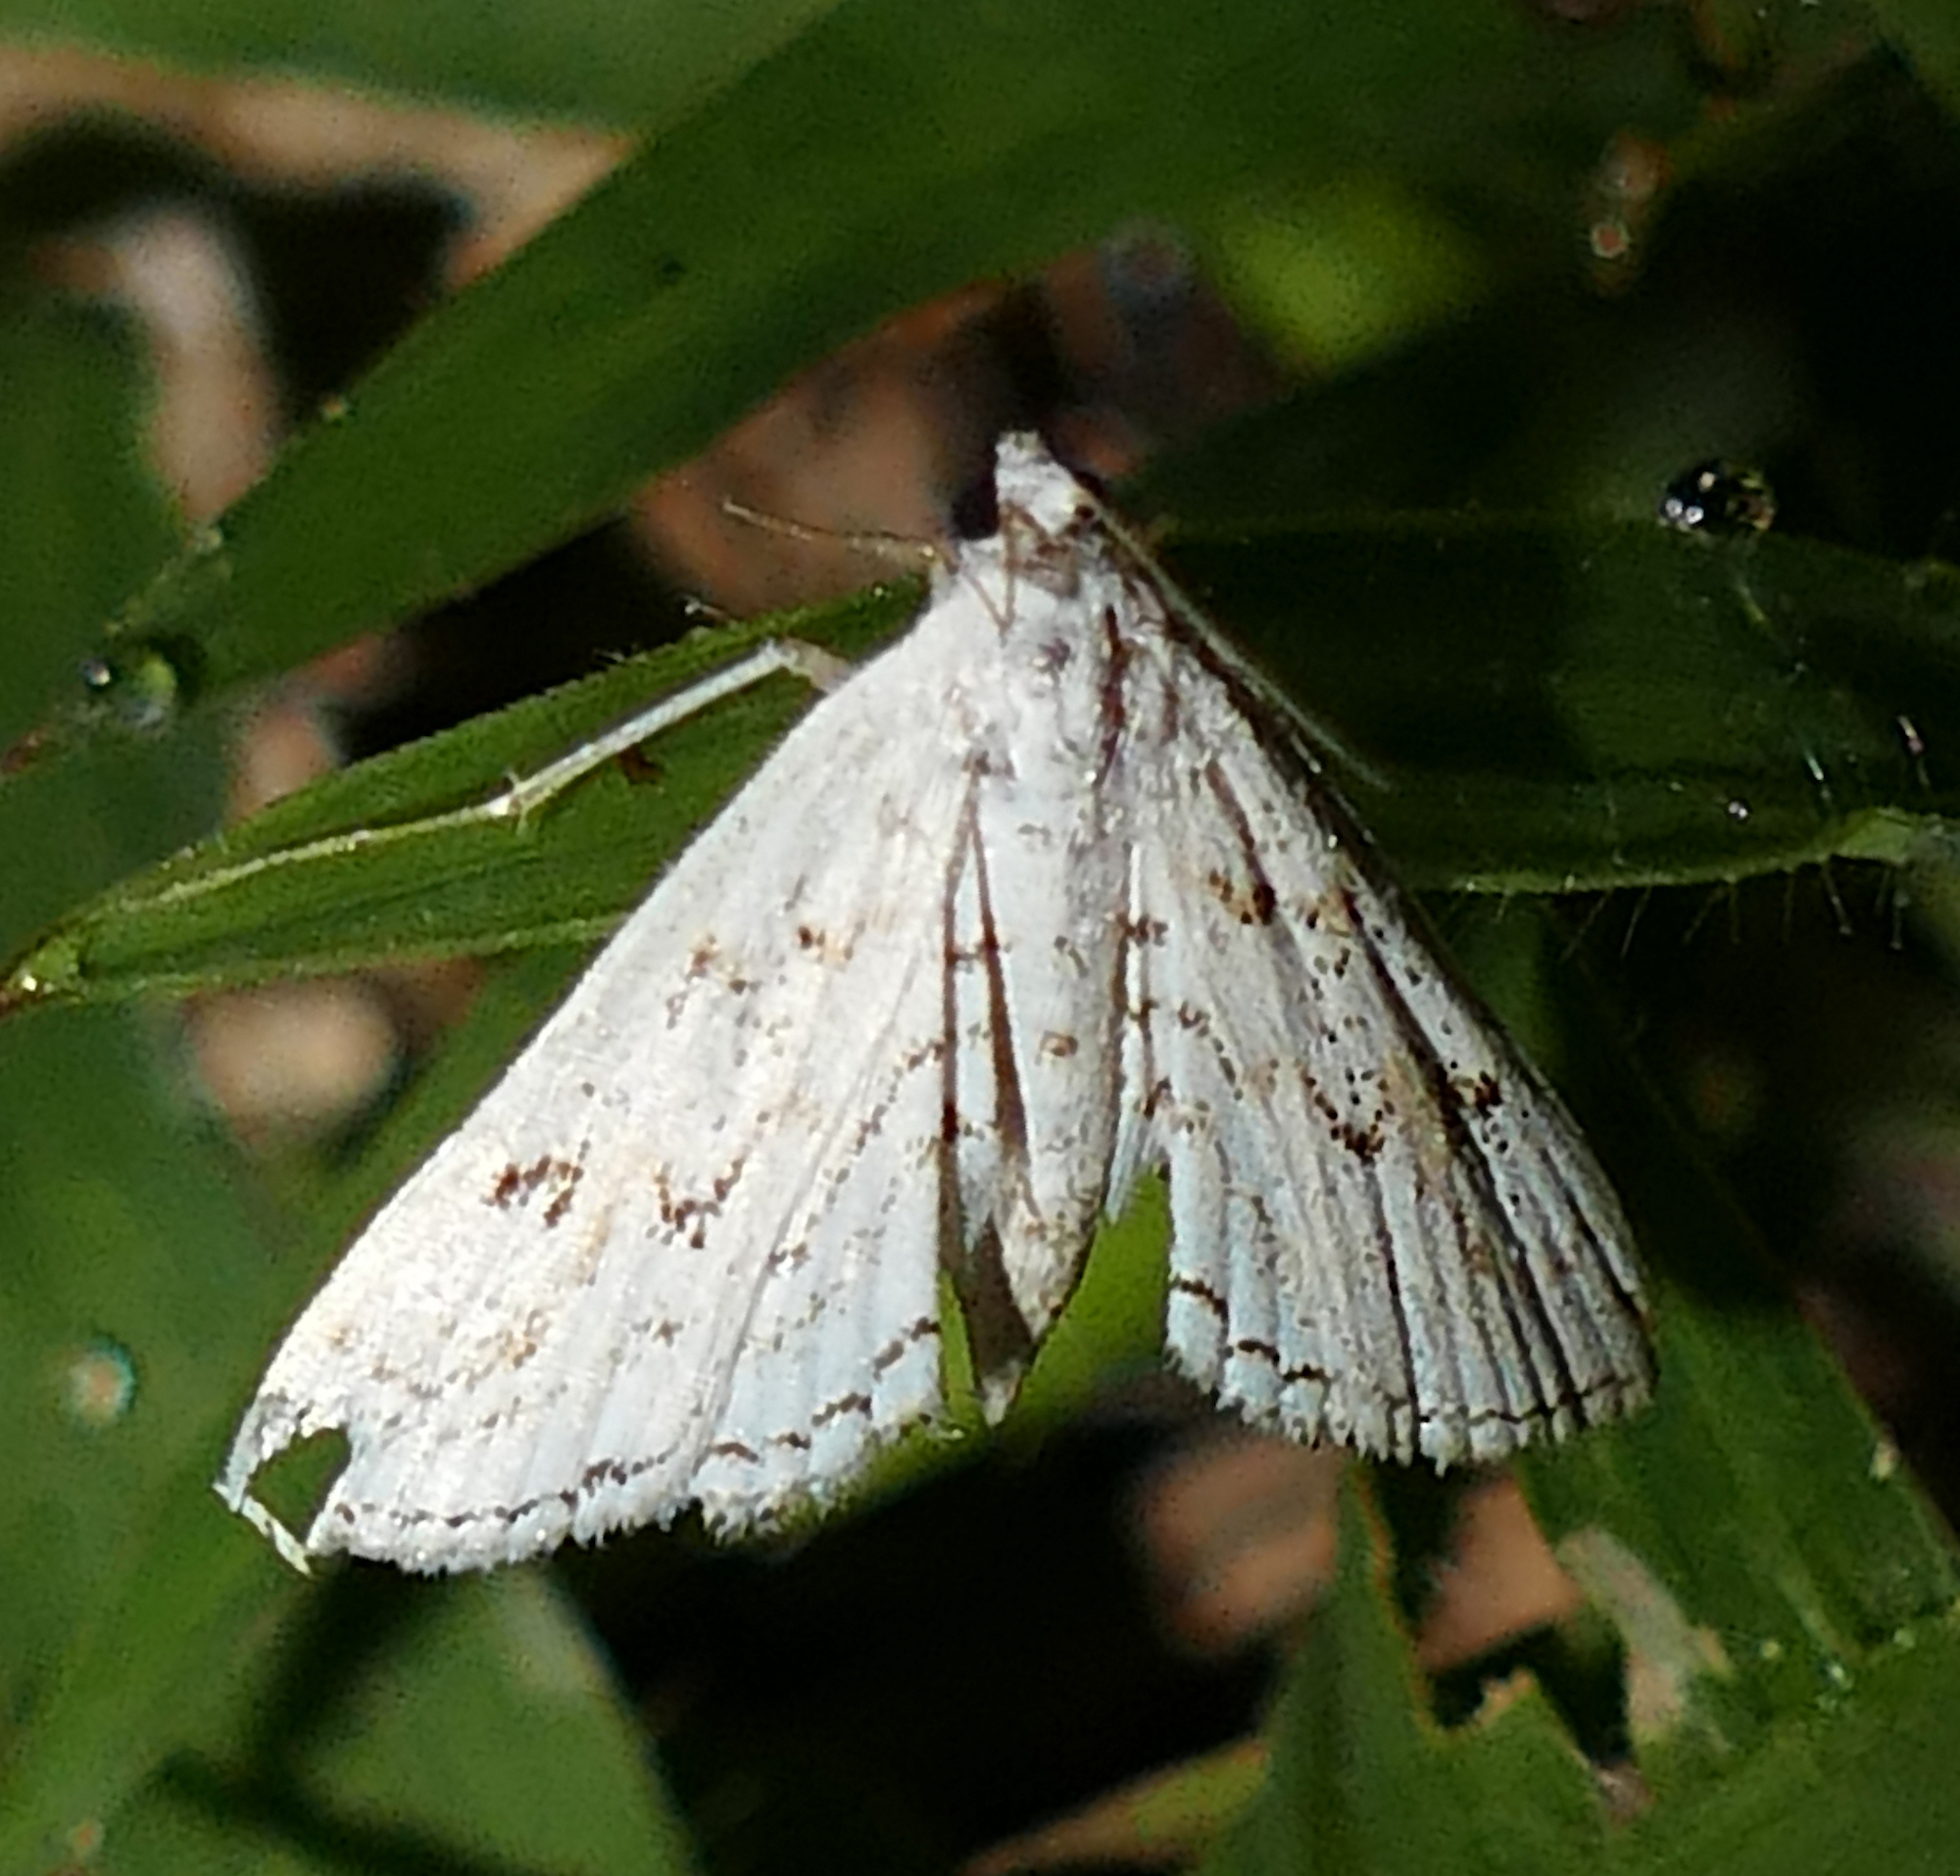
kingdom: Animalia
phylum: Arthropoda
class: Insecta
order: Lepidoptera
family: Crambidae
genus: Parapoynx
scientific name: Parapoynx allionealis
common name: Bladderwort casemaker
